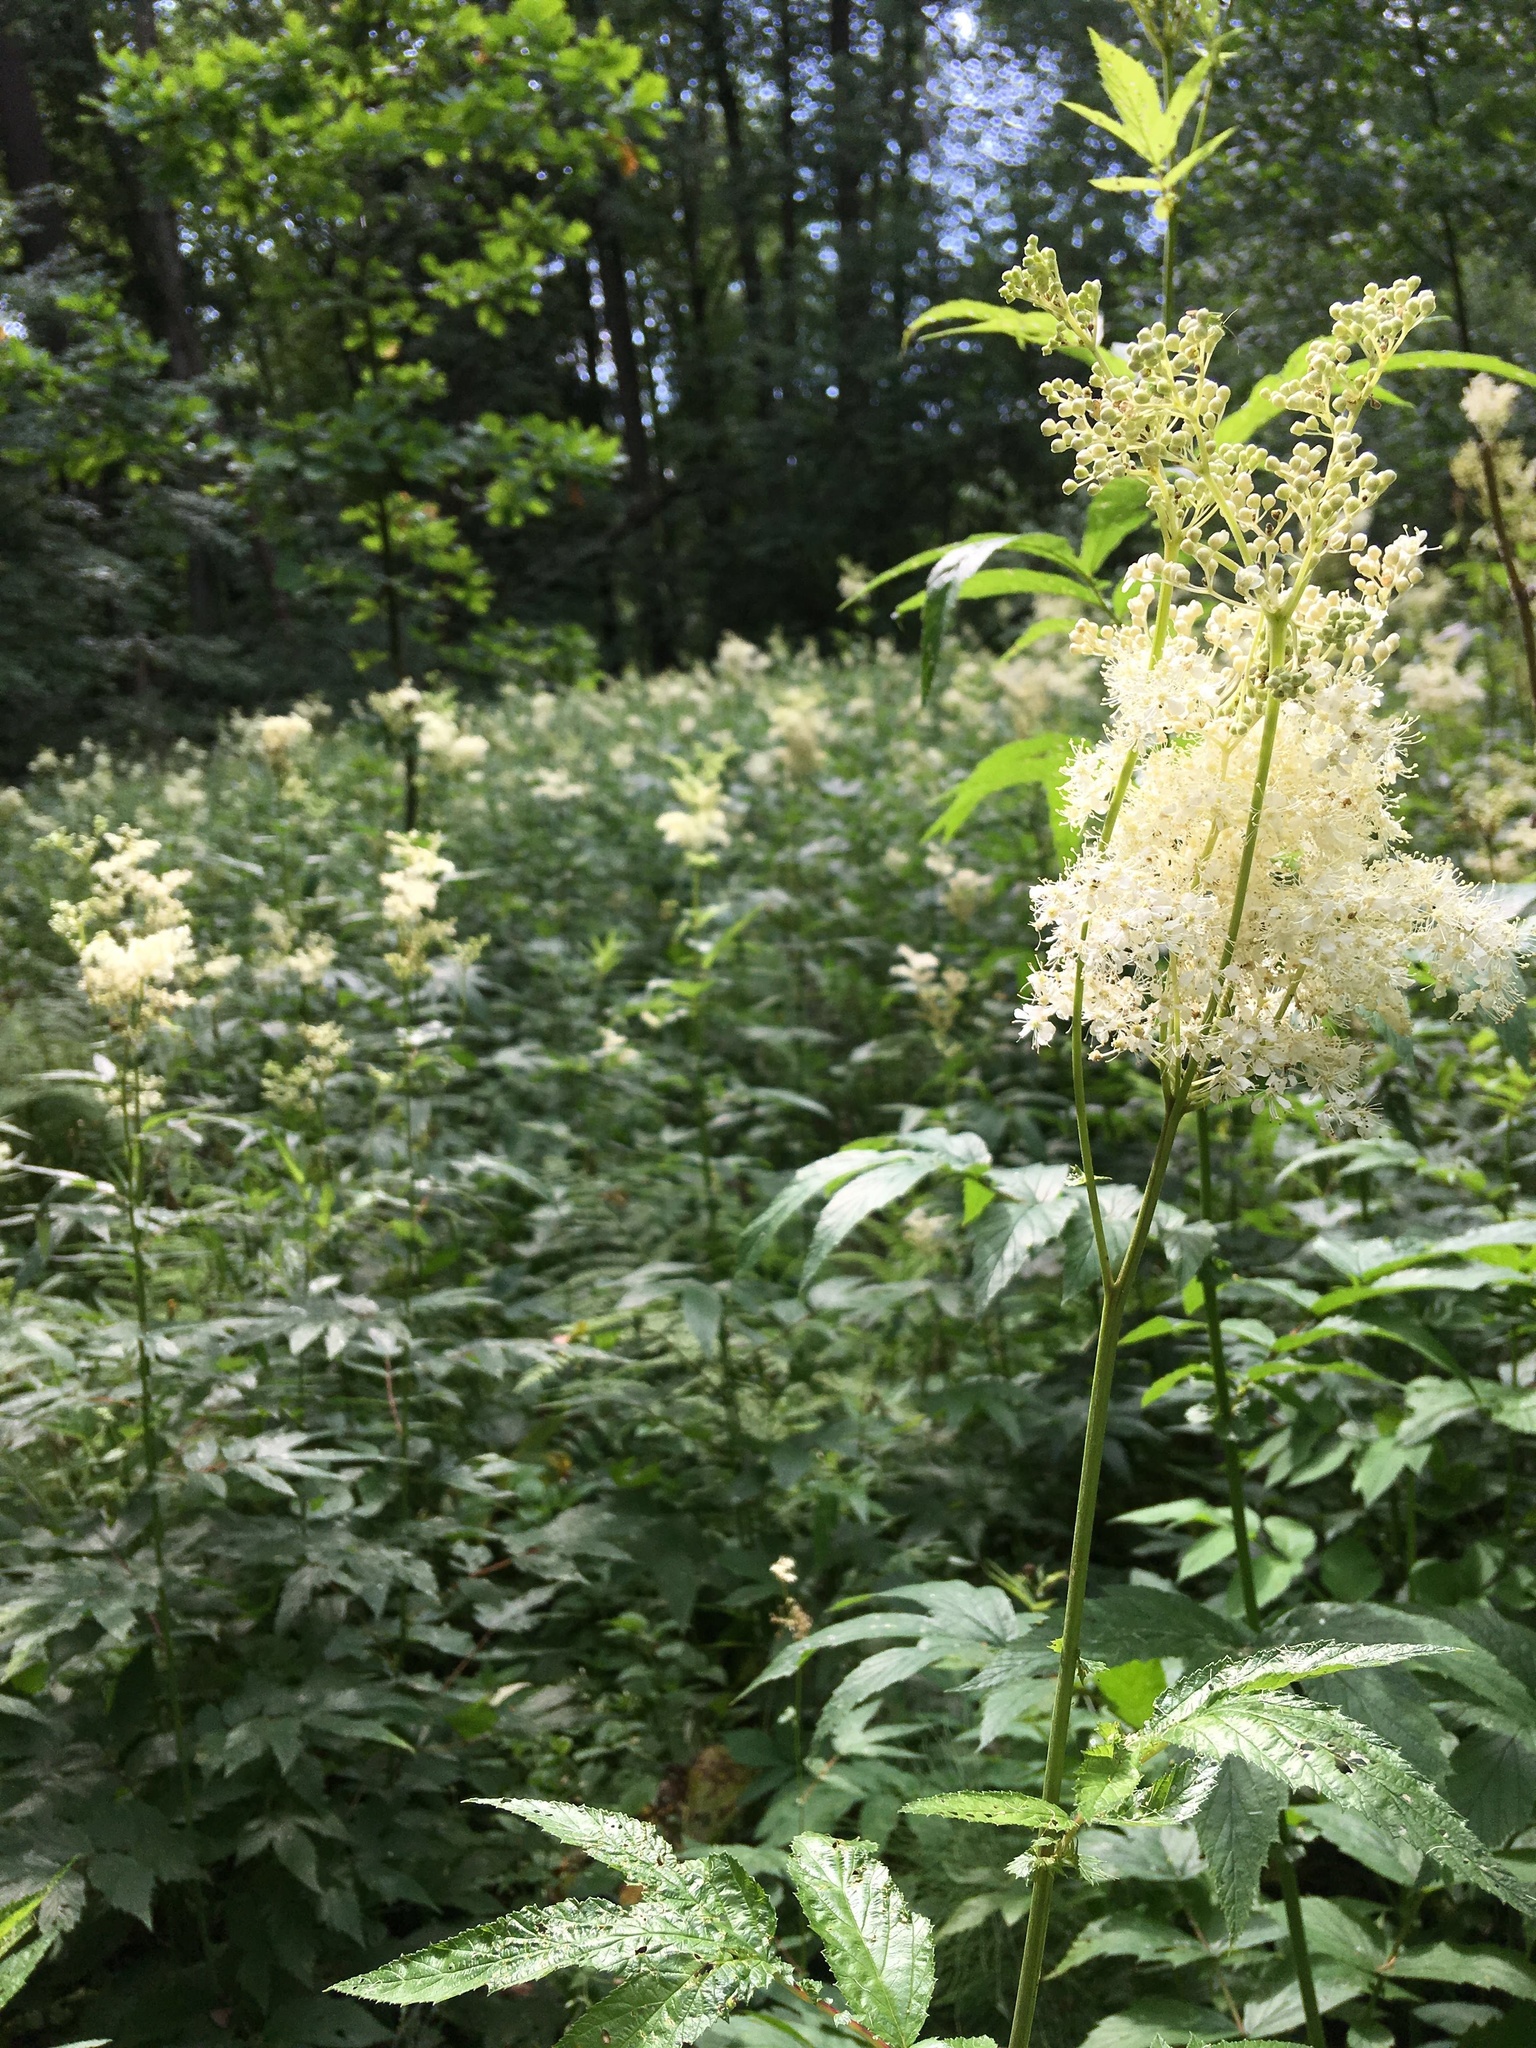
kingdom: Plantae
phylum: Tracheophyta
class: Magnoliopsida
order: Rosales
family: Rosaceae
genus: Filipendula
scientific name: Filipendula ulmaria
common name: Meadowsweet
